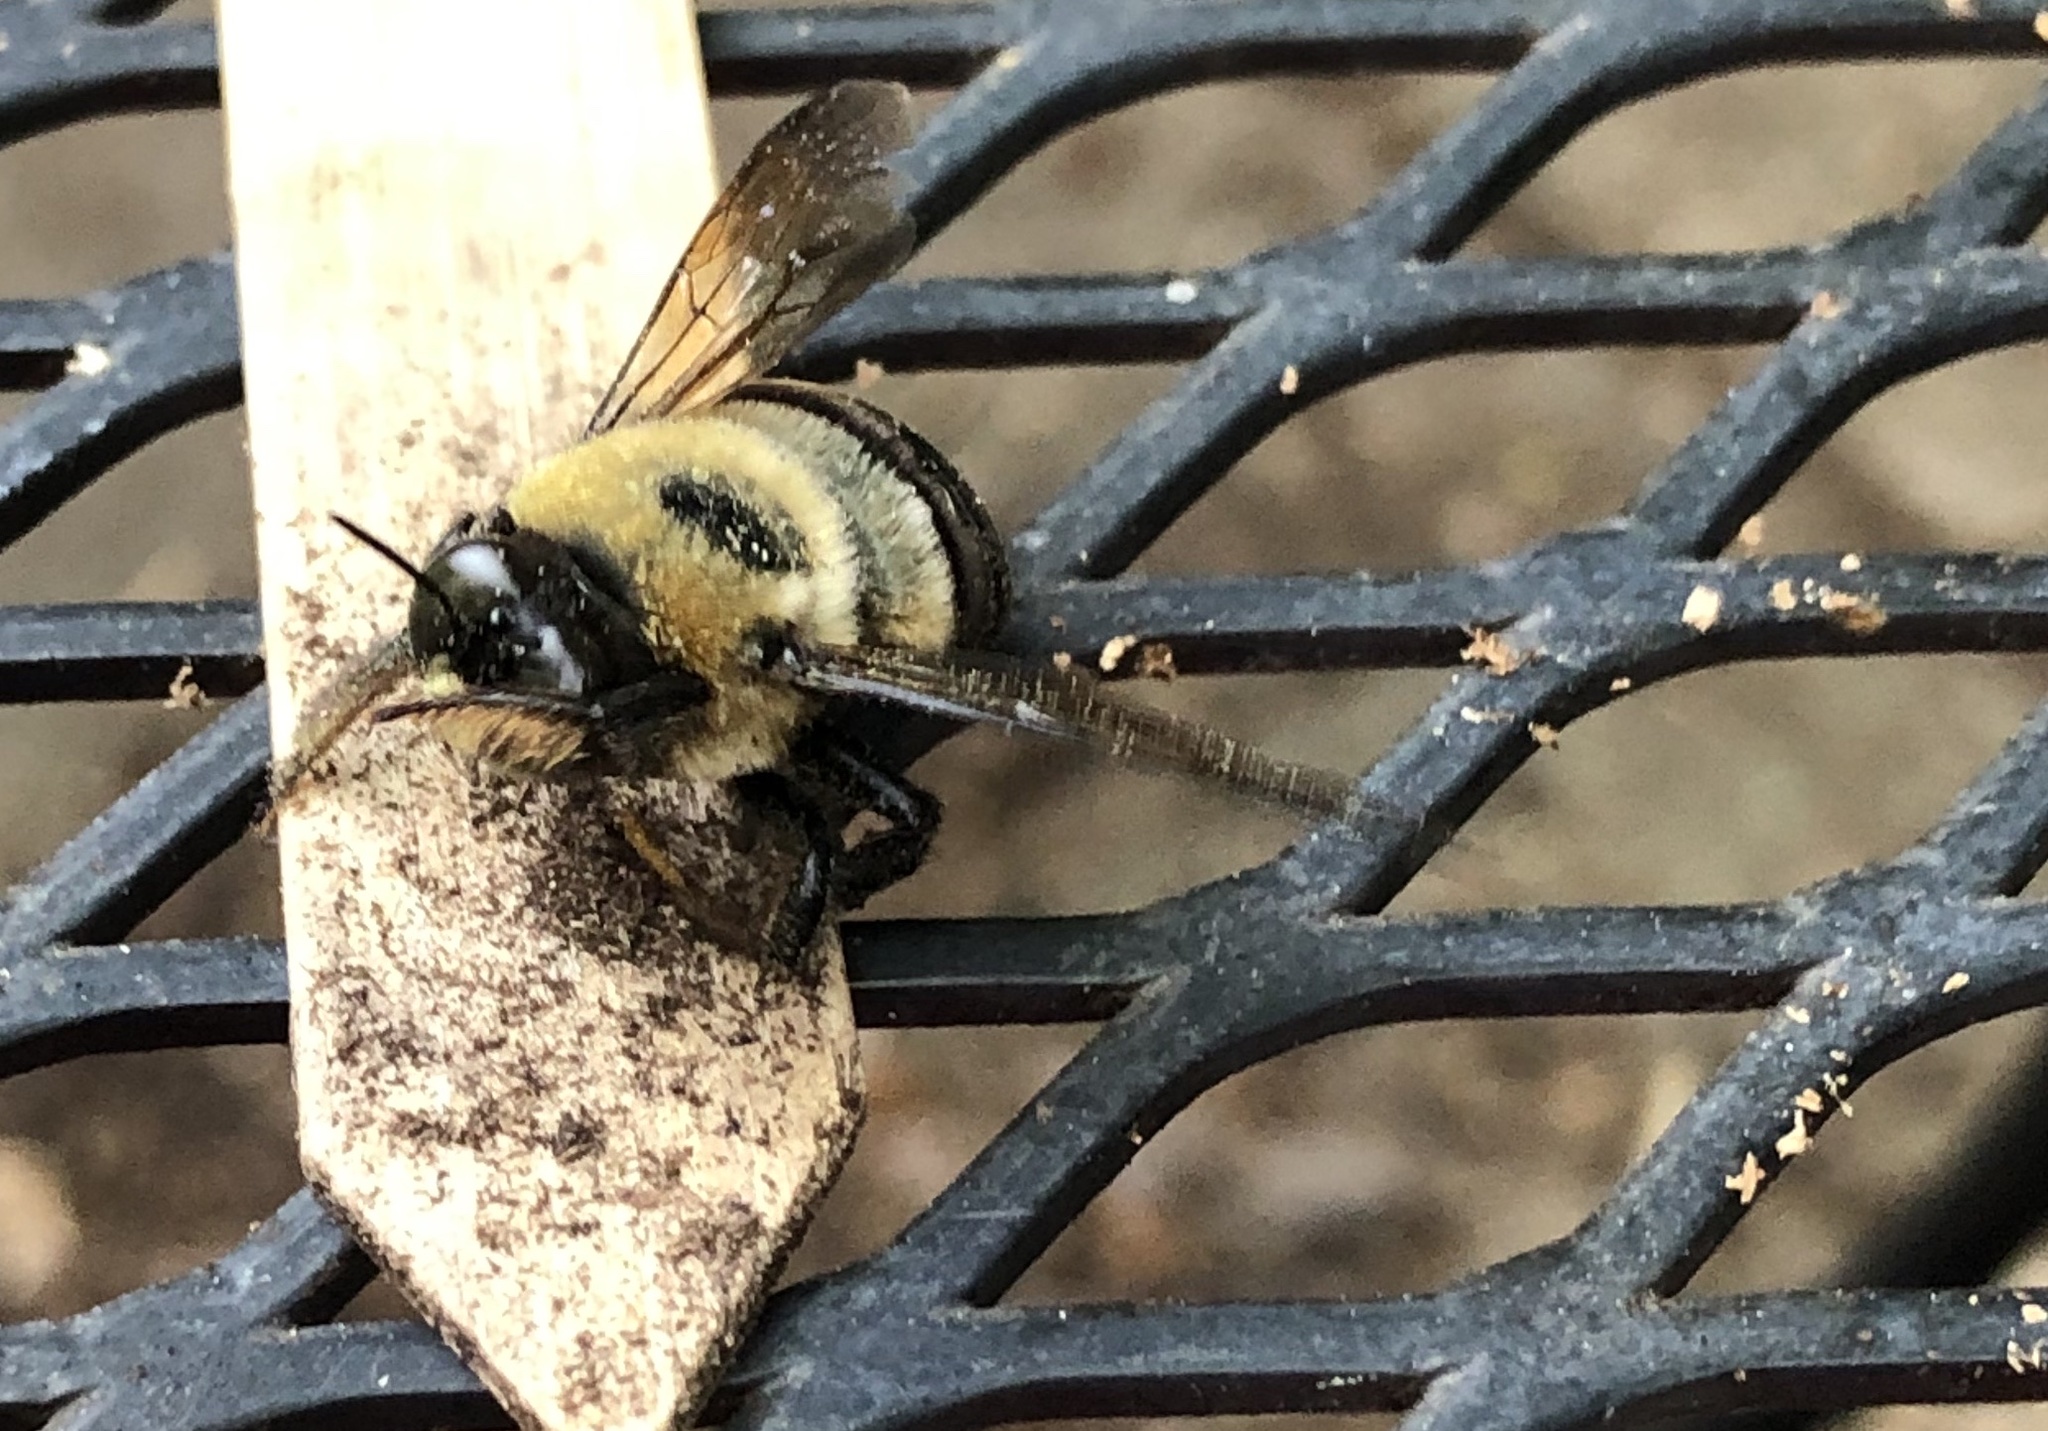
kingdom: Animalia
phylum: Arthropoda
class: Insecta
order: Hymenoptera
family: Apidae
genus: Xylocopa
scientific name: Xylocopa virginica
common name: Carpenter bee
